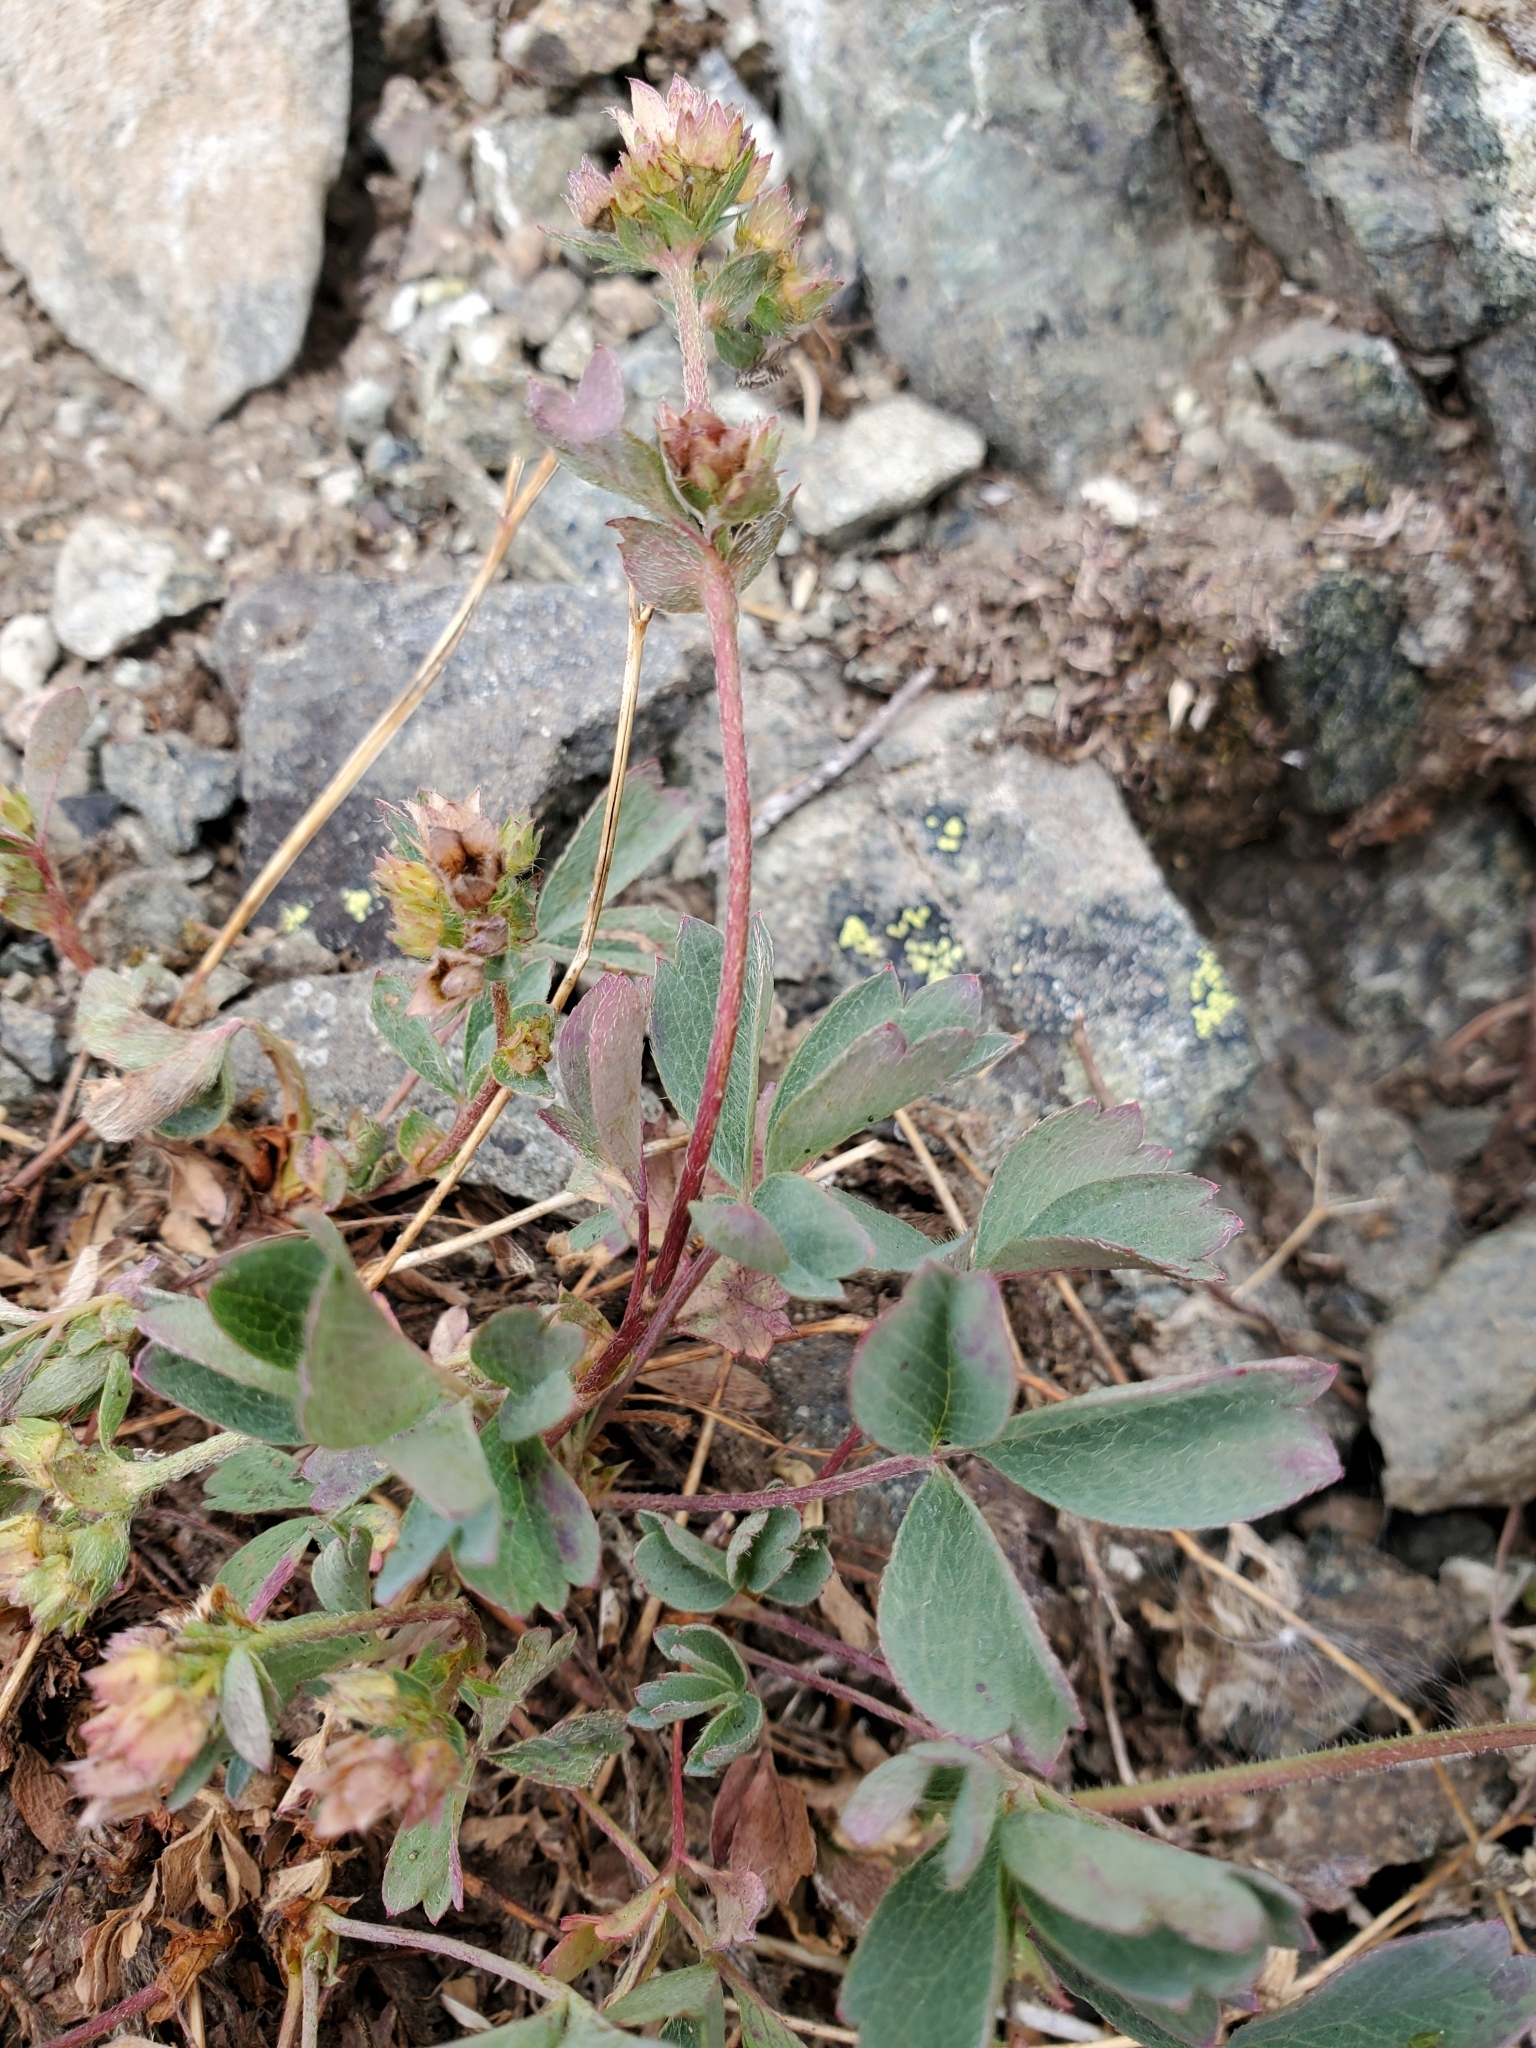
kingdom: Plantae
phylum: Tracheophyta
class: Magnoliopsida
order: Rosales
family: Rosaceae
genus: Sibbaldia
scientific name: Sibbaldia procumbens
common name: Creeping sibbaldia
